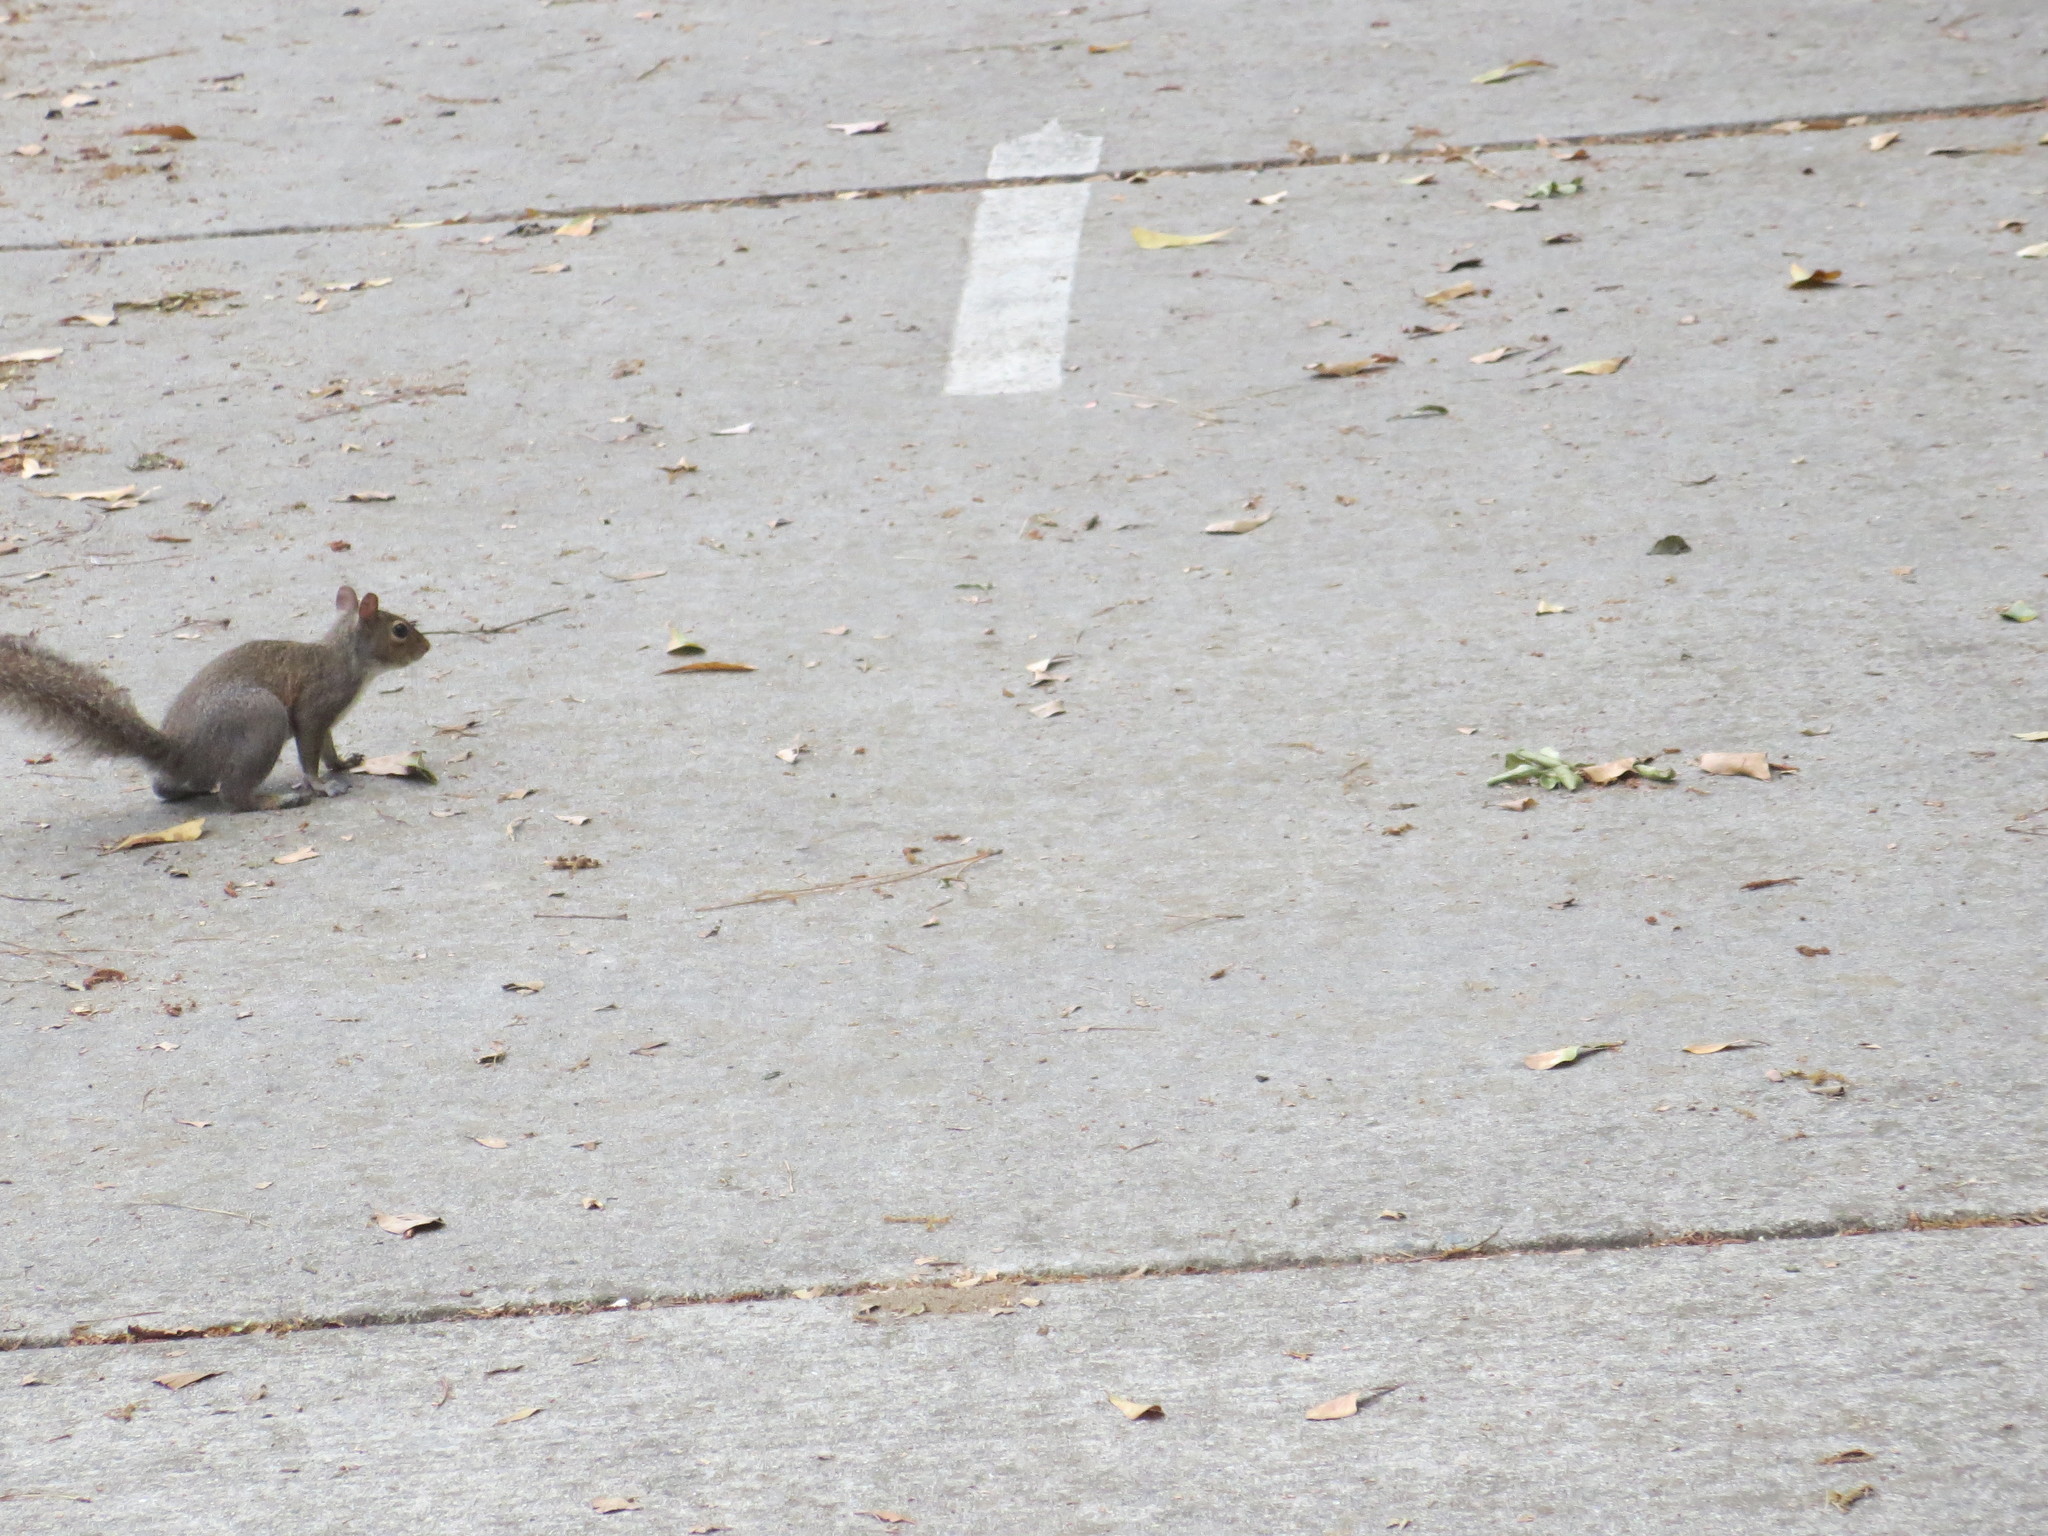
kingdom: Animalia
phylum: Chordata
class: Mammalia
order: Rodentia
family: Sciuridae
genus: Sciurus
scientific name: Sciurus carolinensis
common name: Eastern gray squirrel
